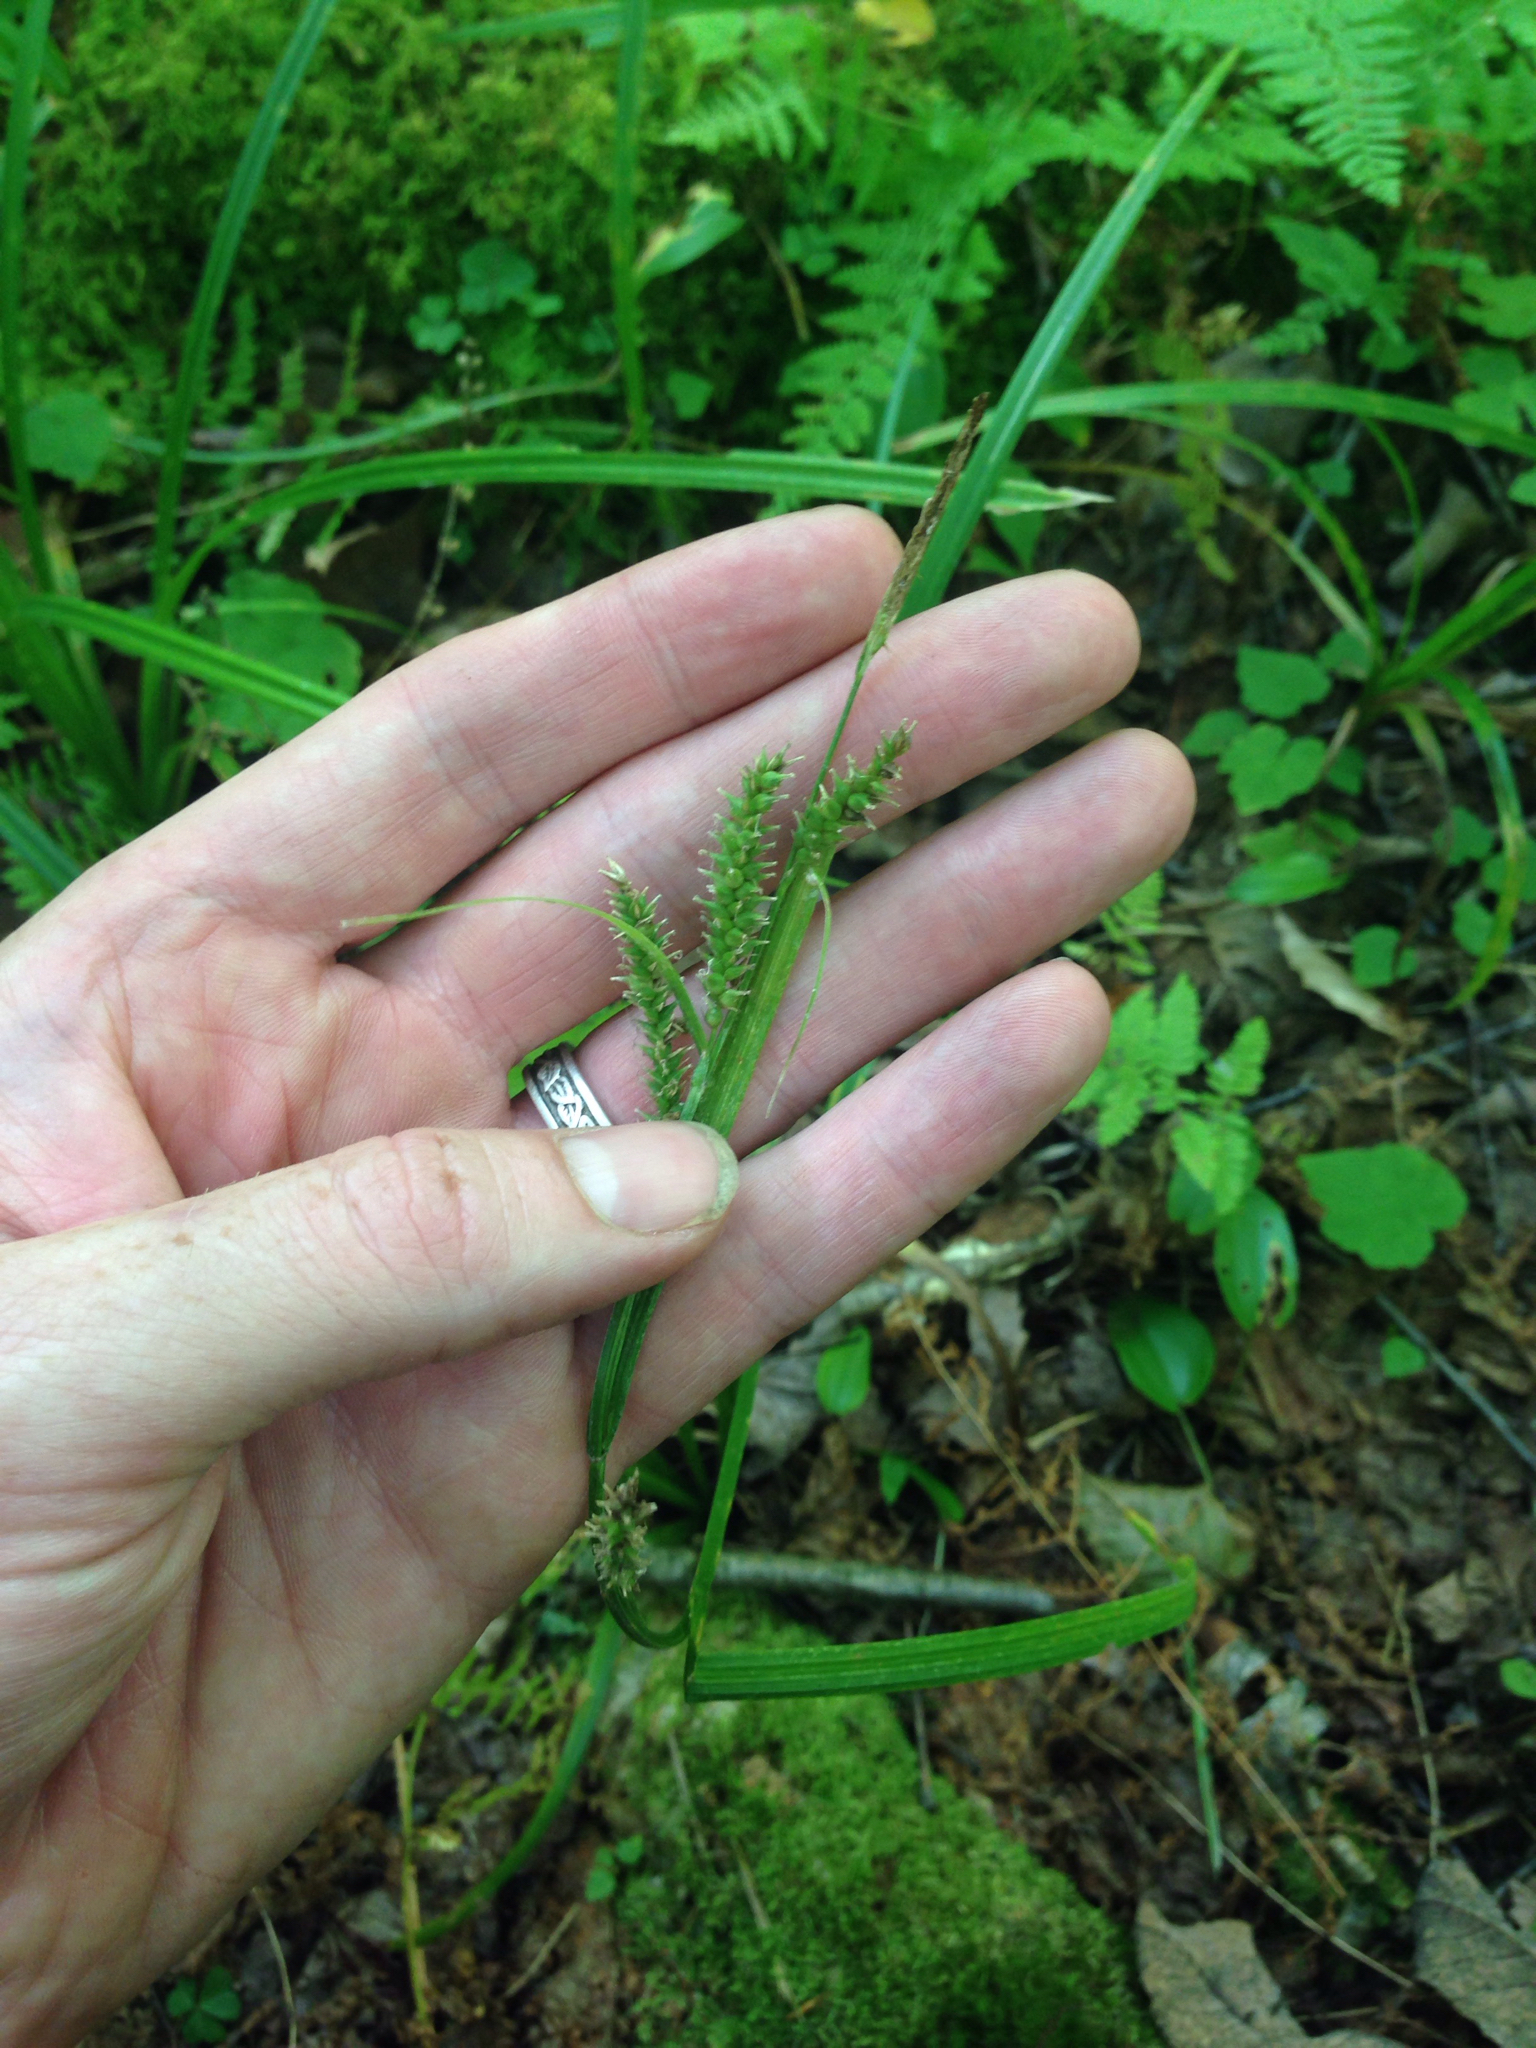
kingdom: Plantae
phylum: Tracheophyta
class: Liliopsida
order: Poales
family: Cyperaceae
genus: Carex
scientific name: Carex scabrata
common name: Eastern rough sedge
